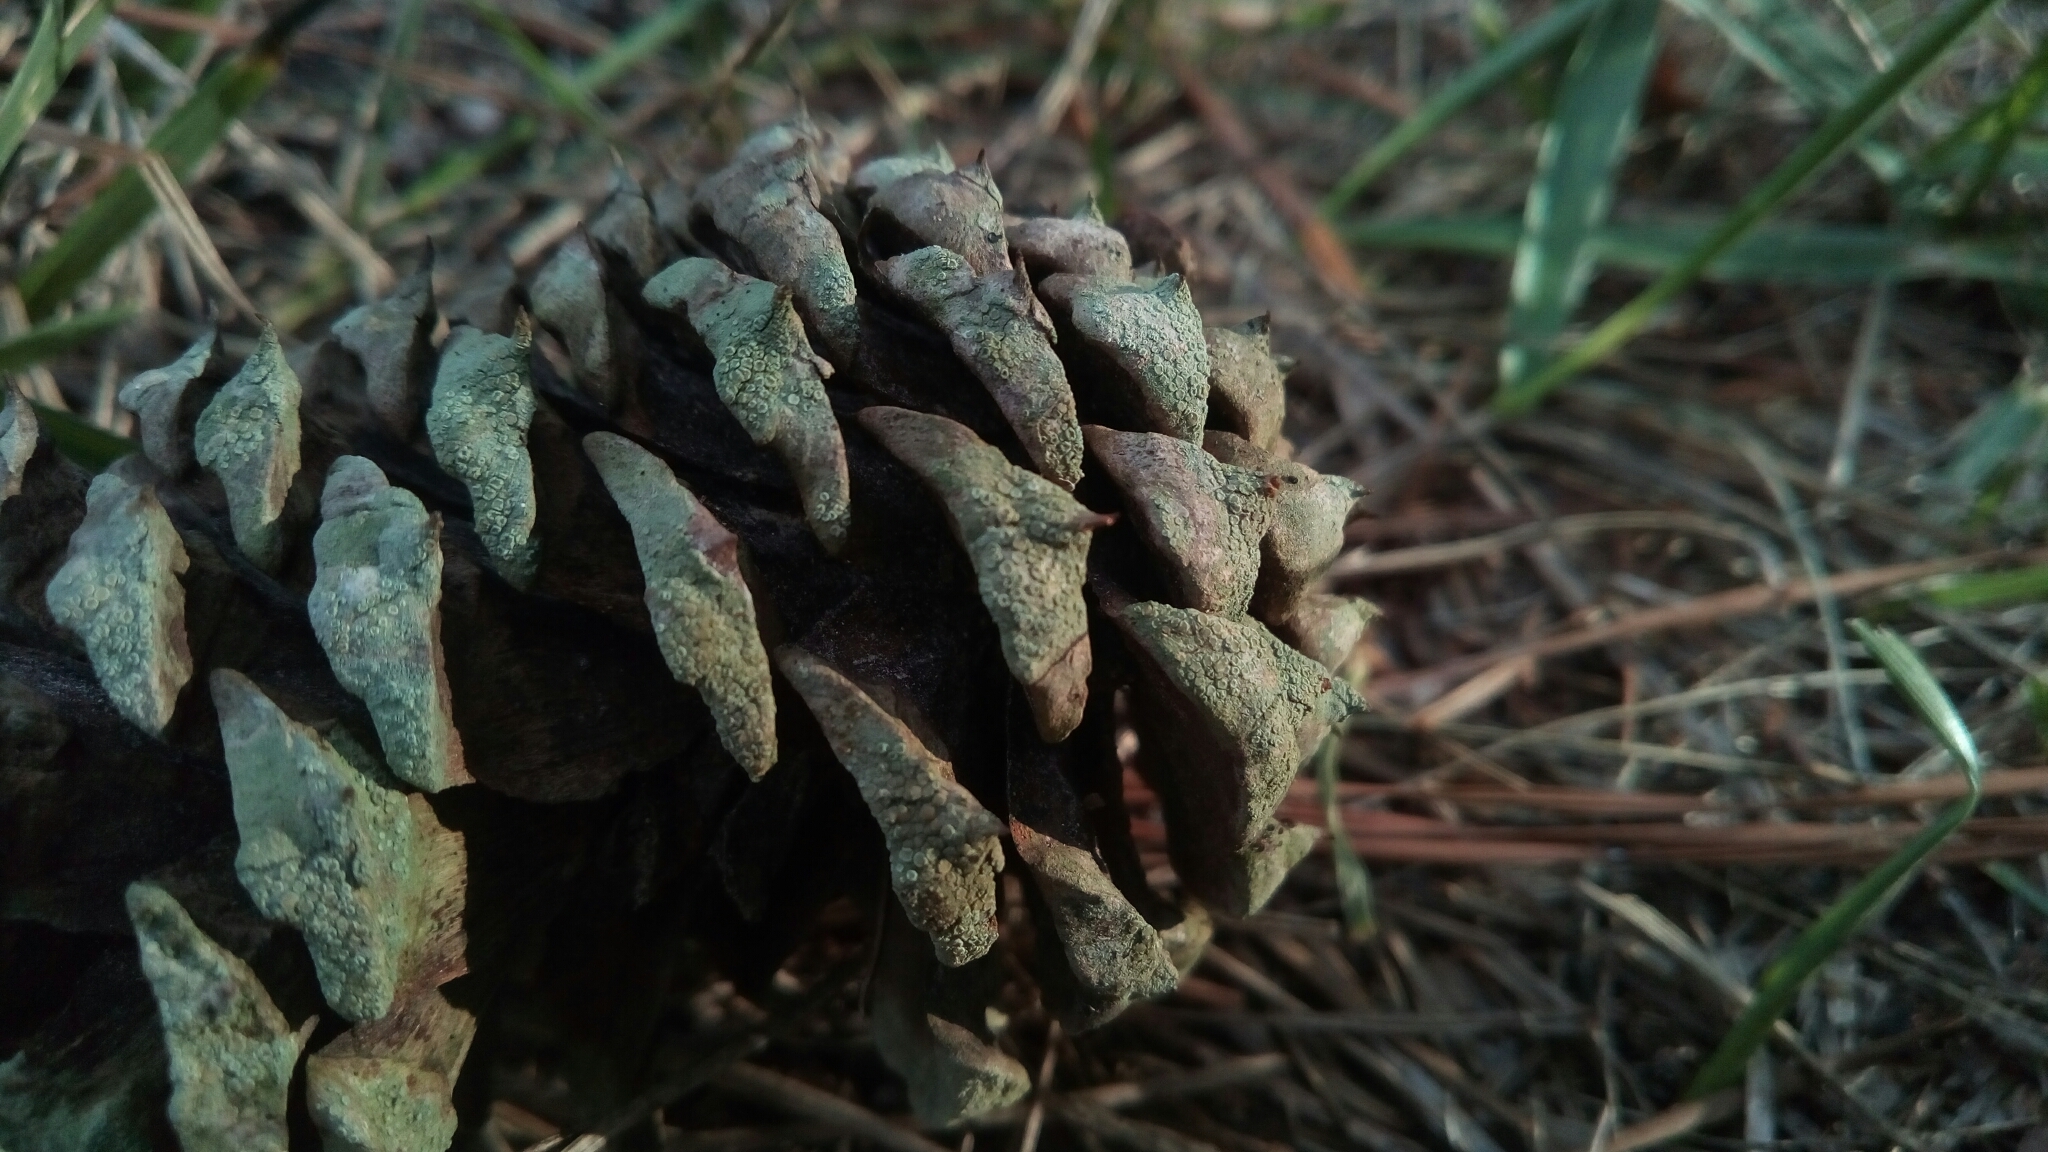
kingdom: Fungi
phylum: Ascomycota
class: Lecanoromycetes
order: Lecanorales
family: Lecanoraceae
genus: Lecanora
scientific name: Lecanora strobilina
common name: Mealy rim-lichen
